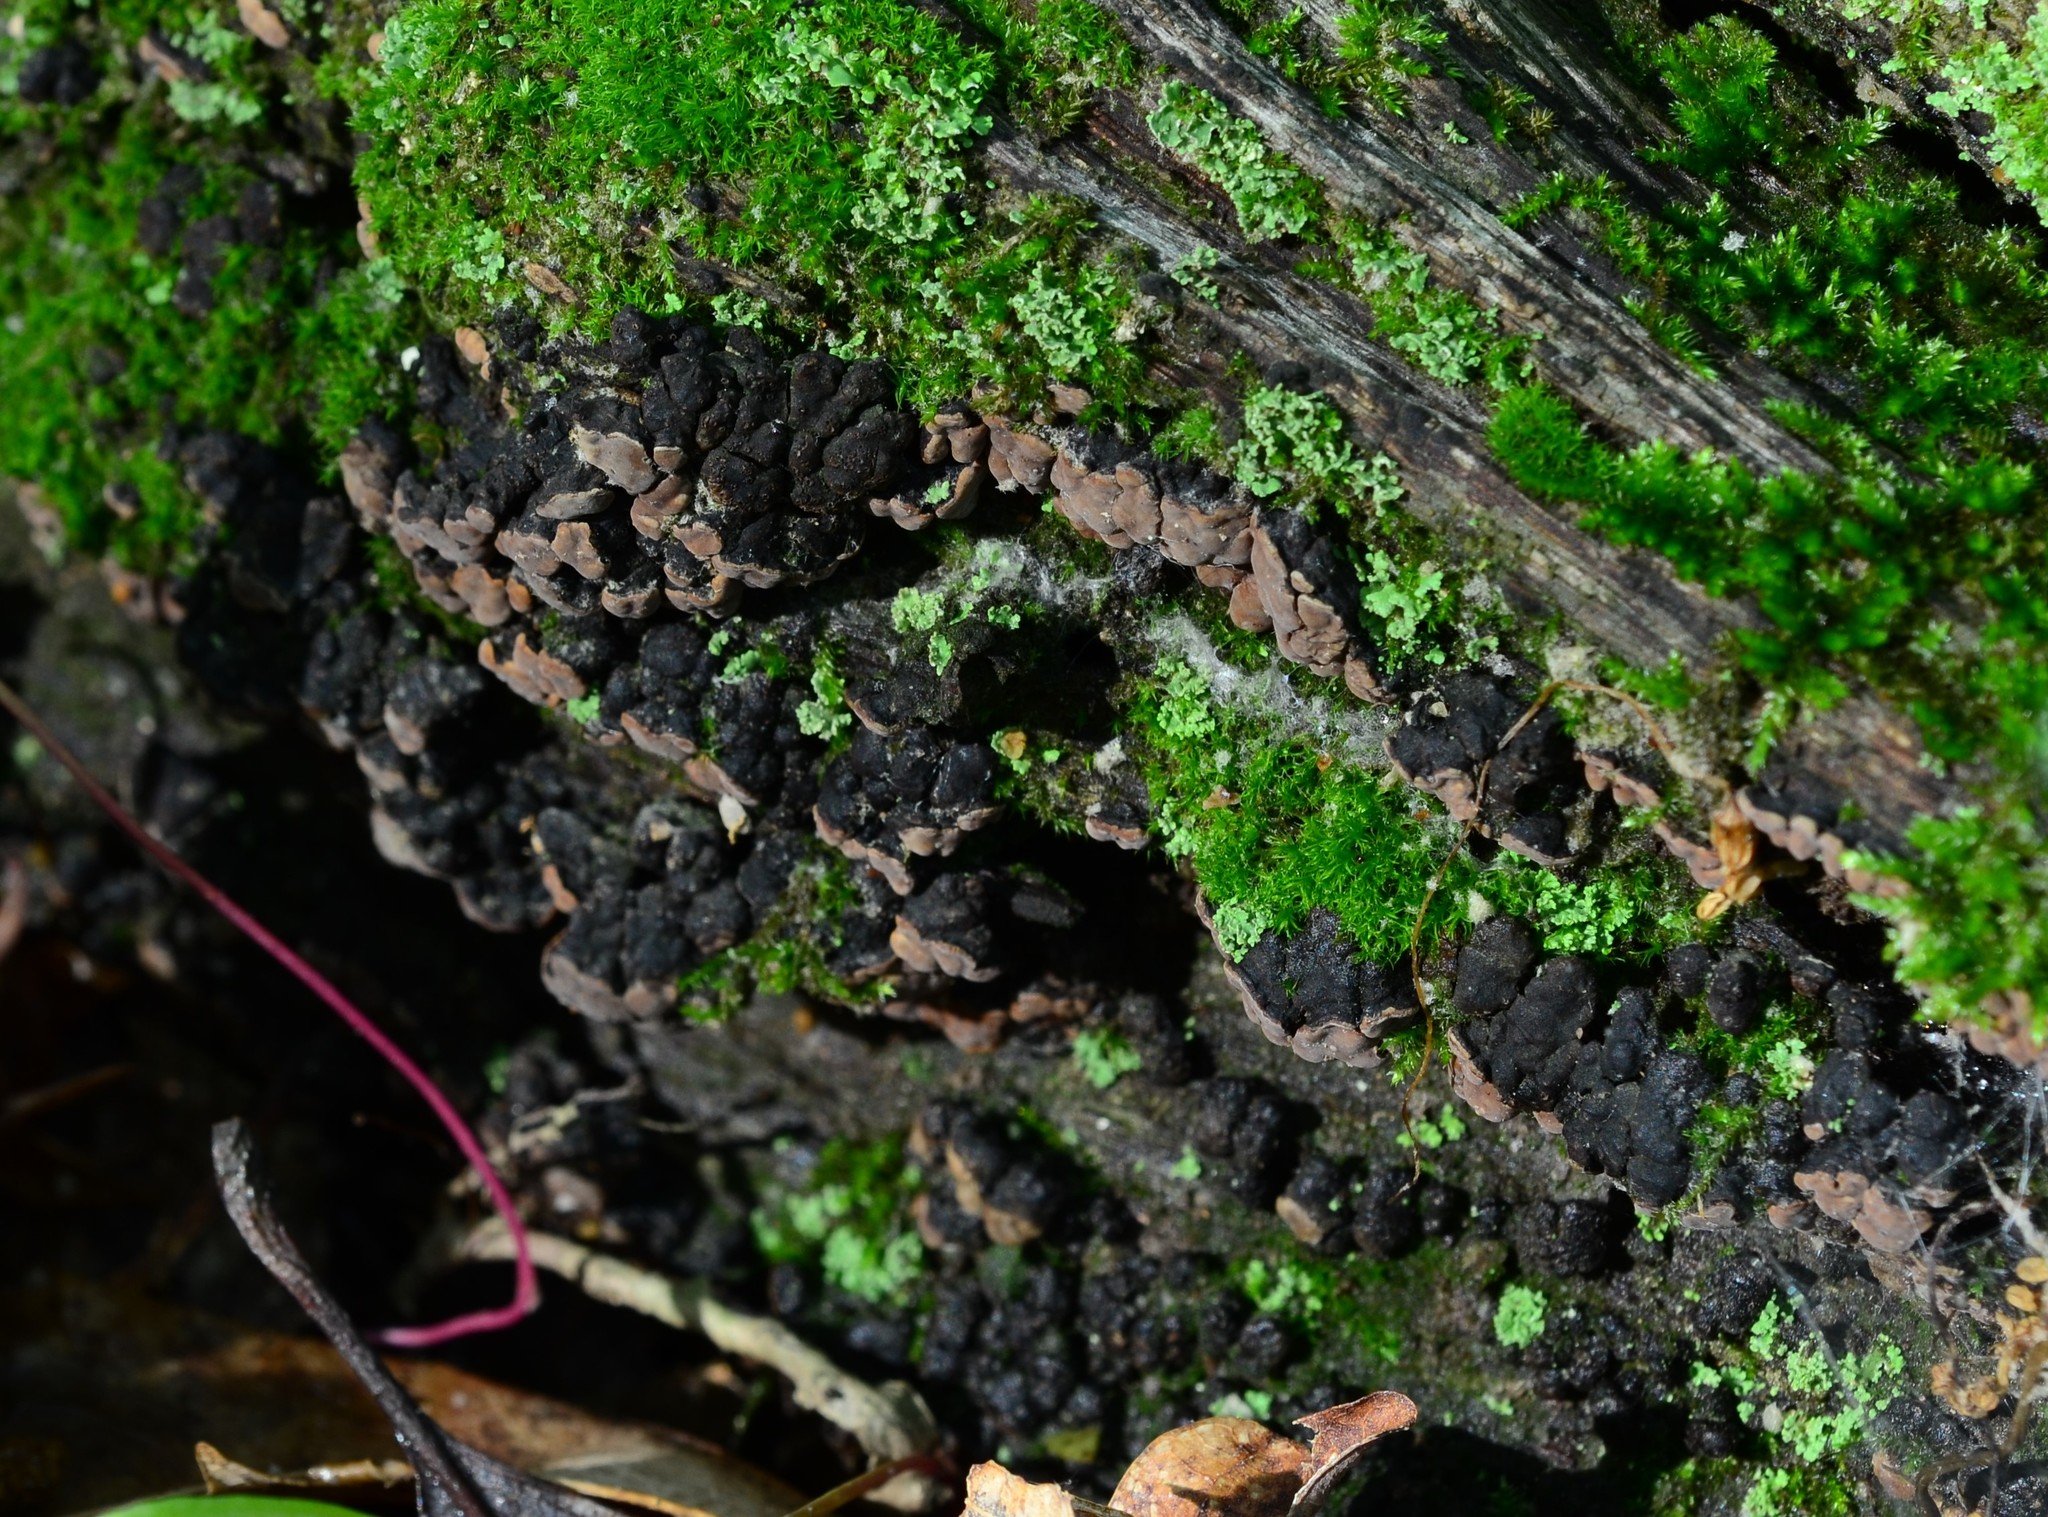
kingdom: Fungi
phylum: Basidiomycota
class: Agaricomycetes
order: Russulales
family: Stereaceae
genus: Xylobolus
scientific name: Xylobolus frustulatus
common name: Ceramic parchment
